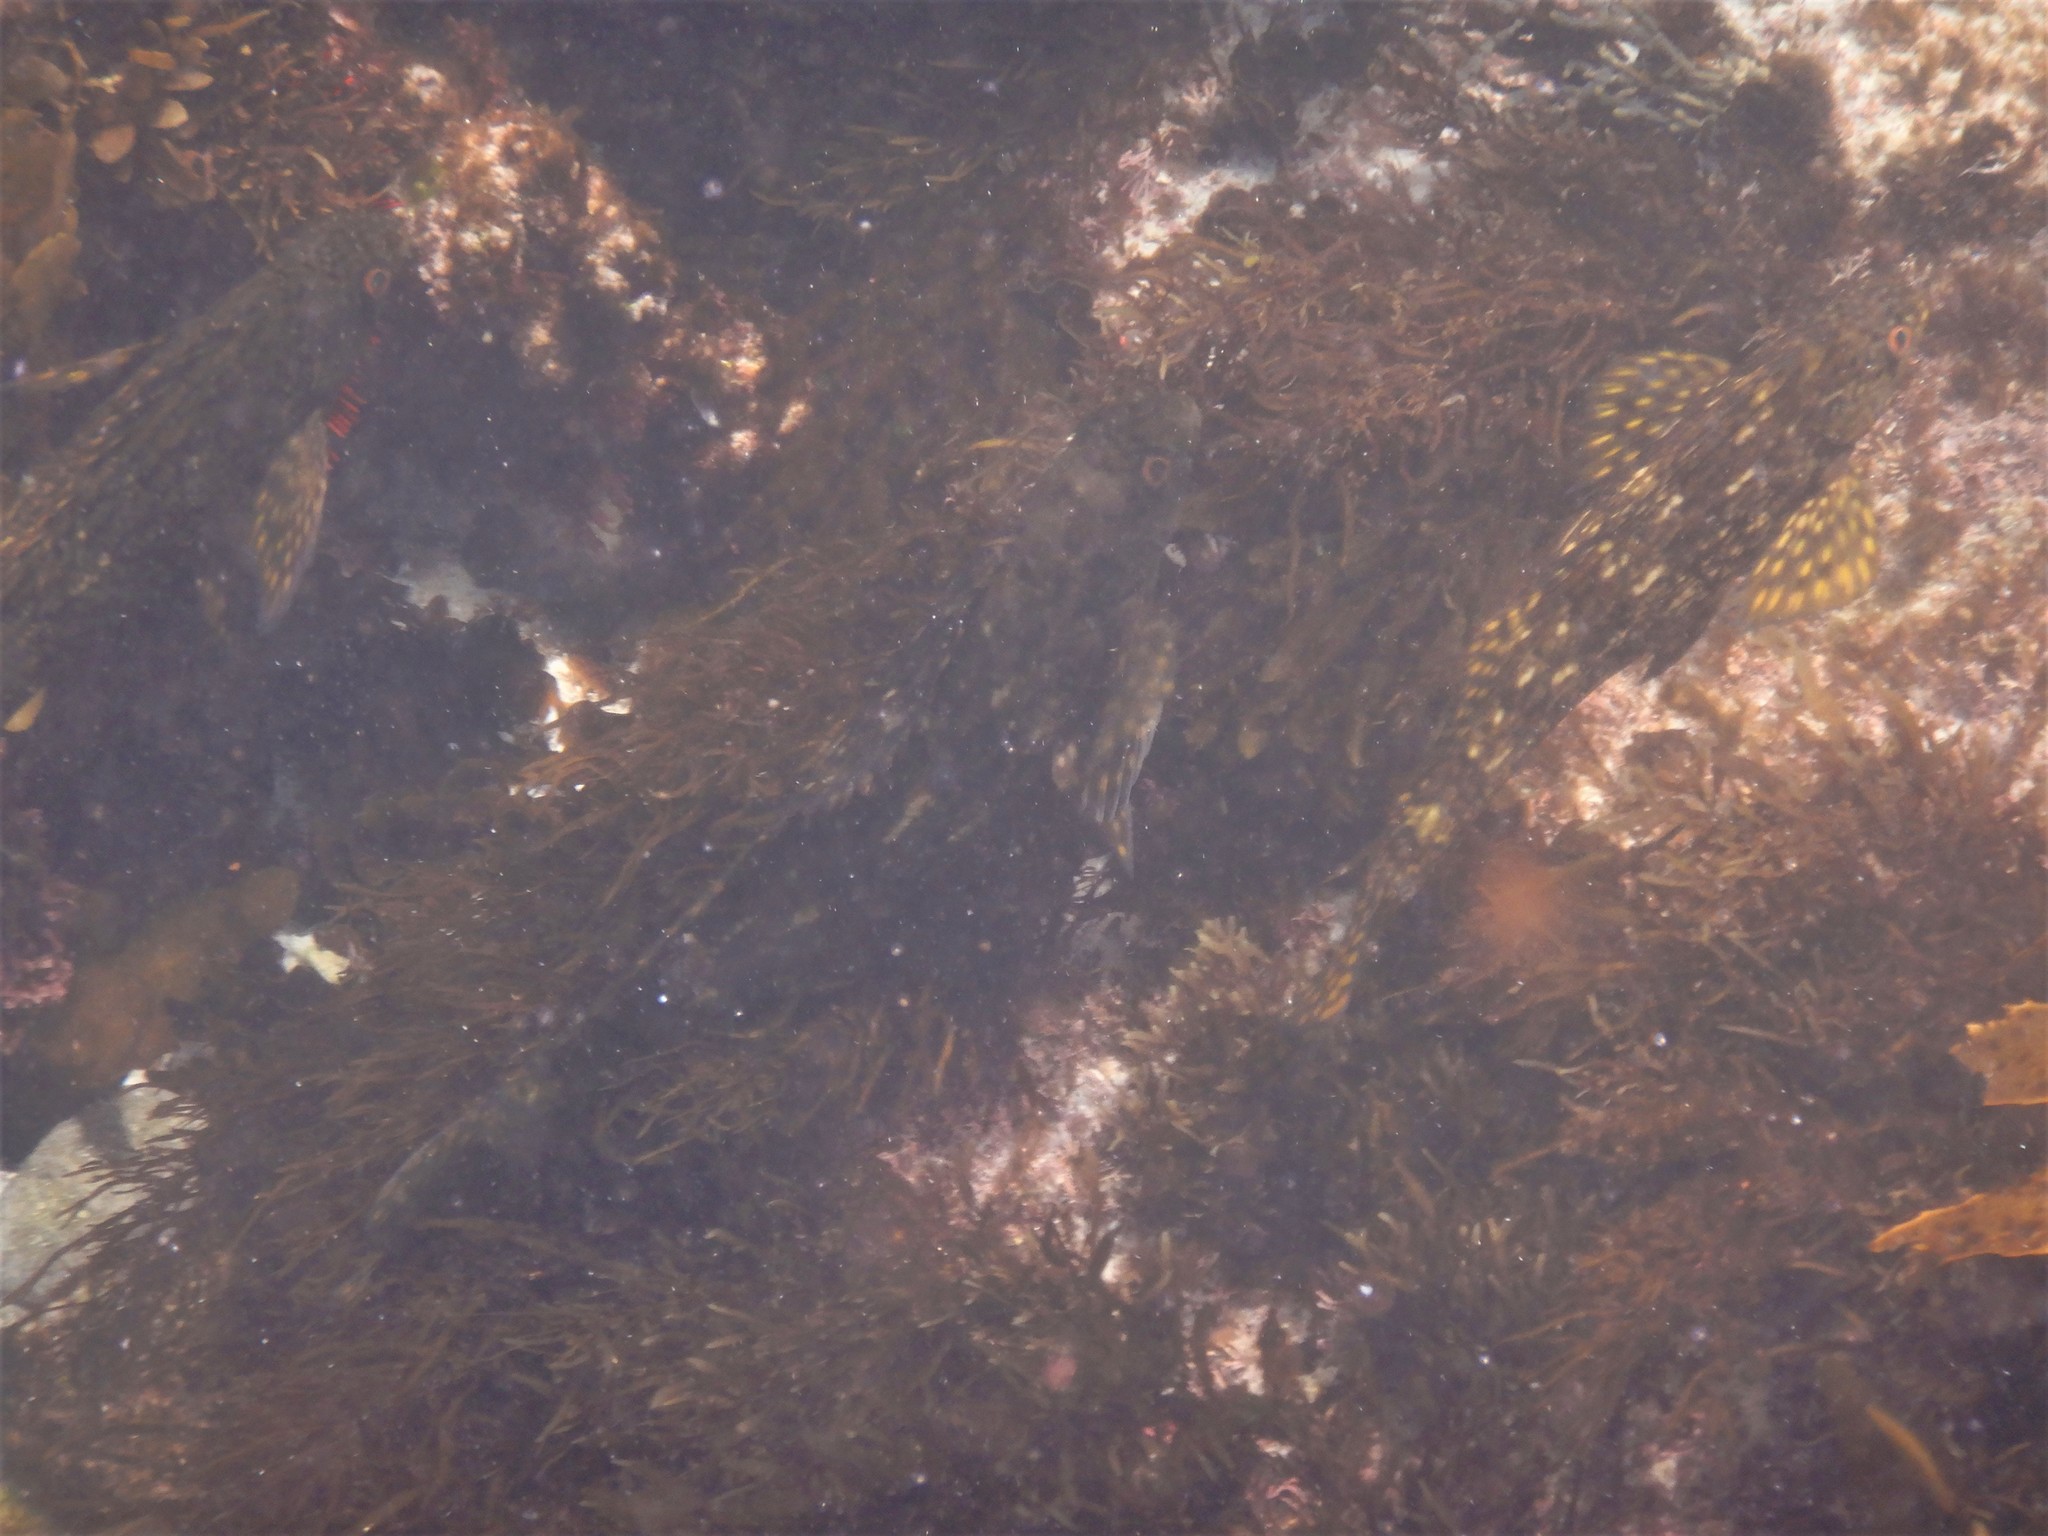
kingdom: Animalia
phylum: Chordata
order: Perciformes
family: Aplodactylidae
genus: Aplodactylus
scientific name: Aplodactylus lophodon
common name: Cockatoo fish
